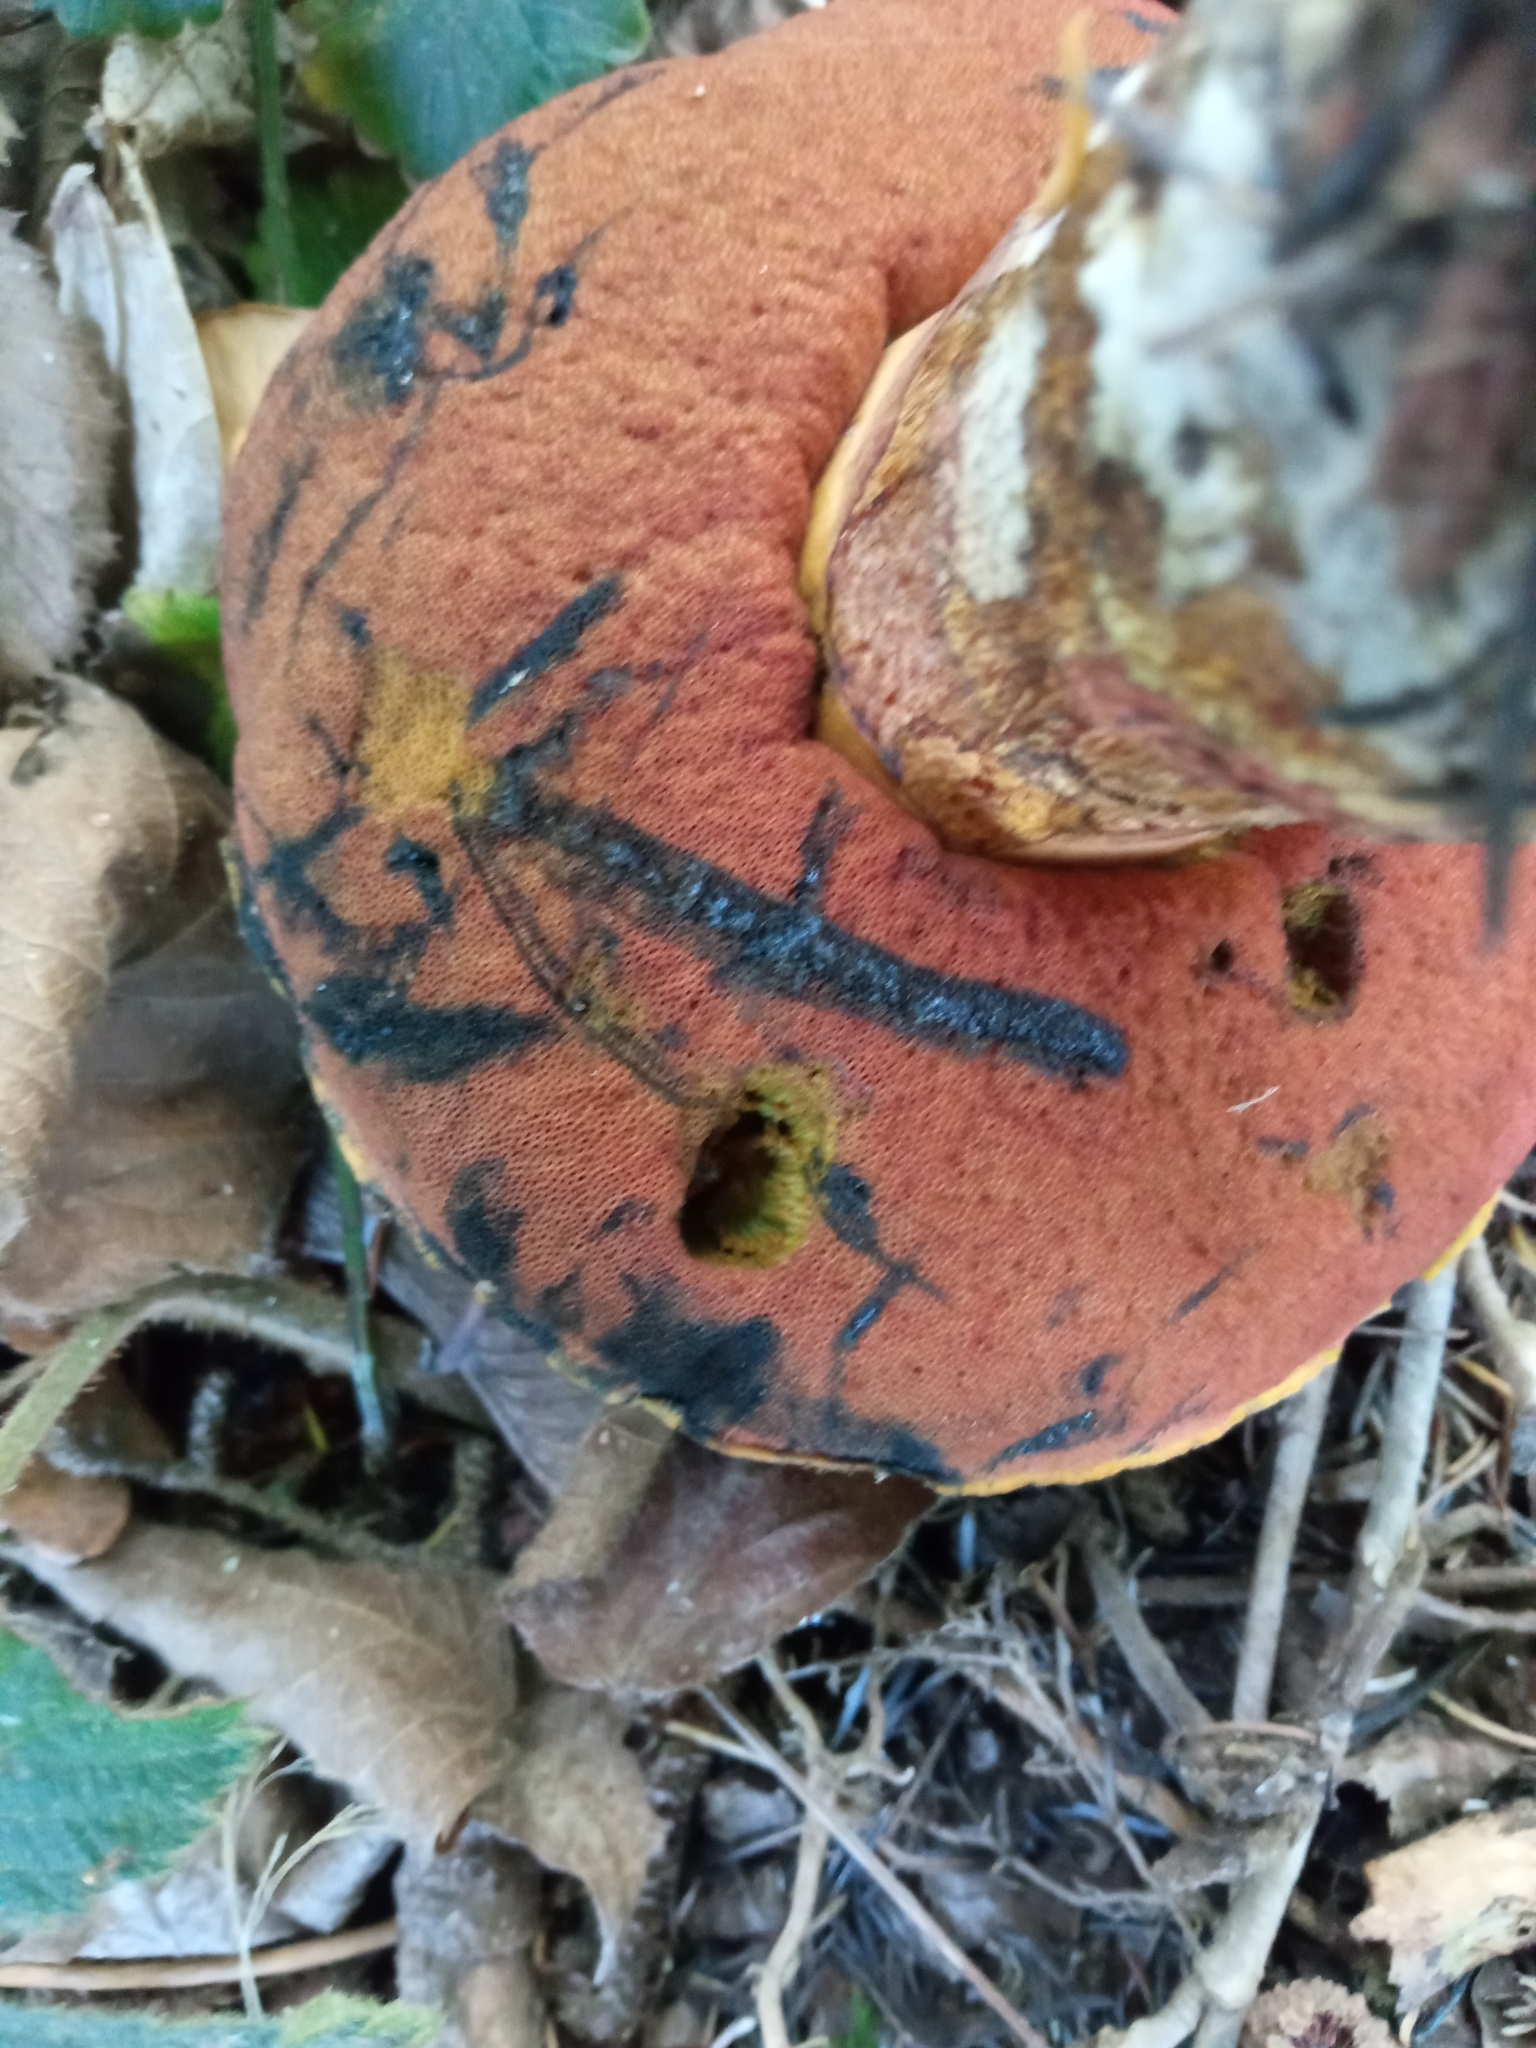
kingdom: Fungi
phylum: Basidiomycota
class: Agaricomycetes
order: Boletales
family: Boletaceae
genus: Neoboletus
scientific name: Neoboletus erythropus
